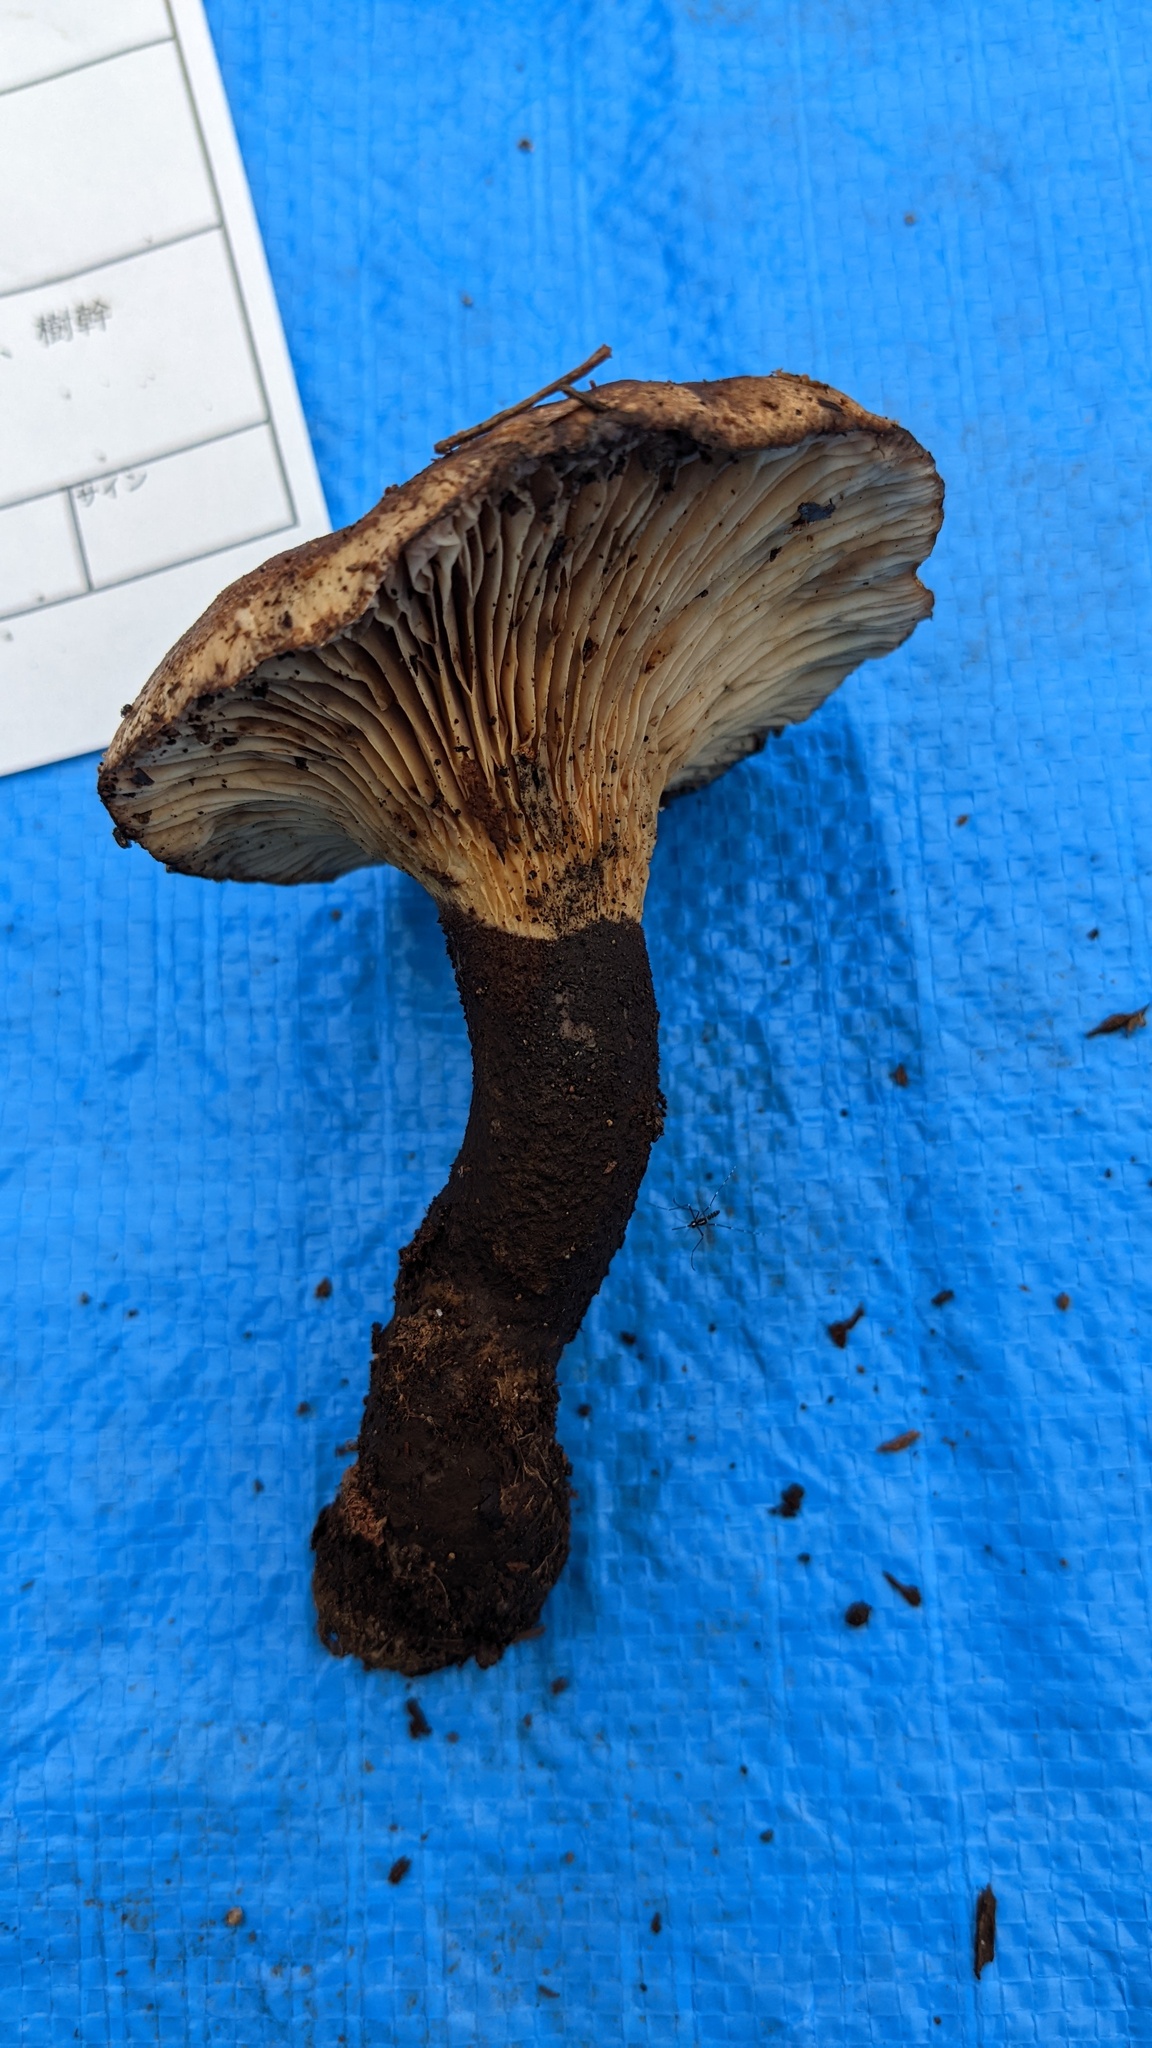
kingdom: Fungi
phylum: Basidiomycota
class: Agaricomycetes
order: Boletales
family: Tapinellaceae
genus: Tapinella
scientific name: Tapinella atrotomentosa
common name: Velvet rollrim
